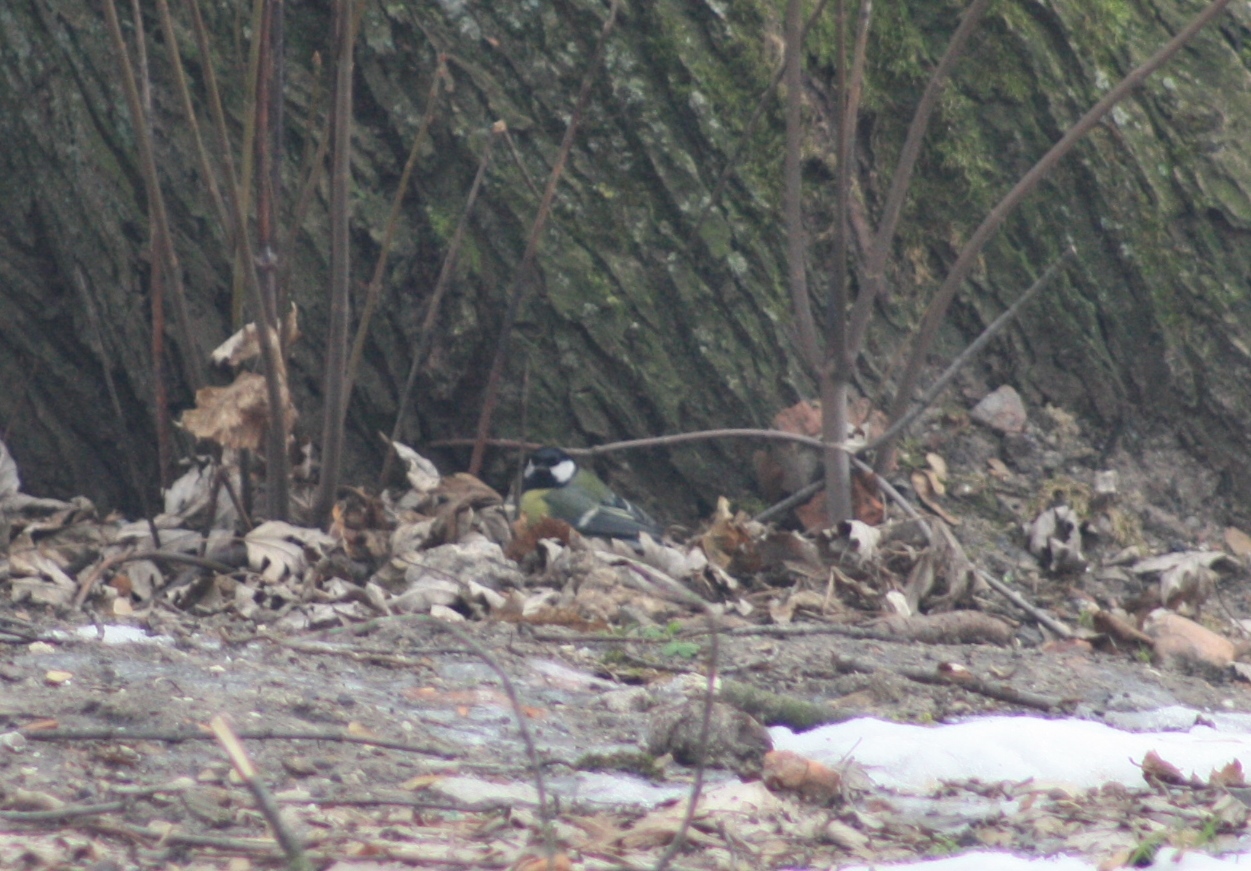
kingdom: Animalia
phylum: Chordata
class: Aves
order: Passeriformes
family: Paridae
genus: Parus
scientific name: Parus major
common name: Great tit
